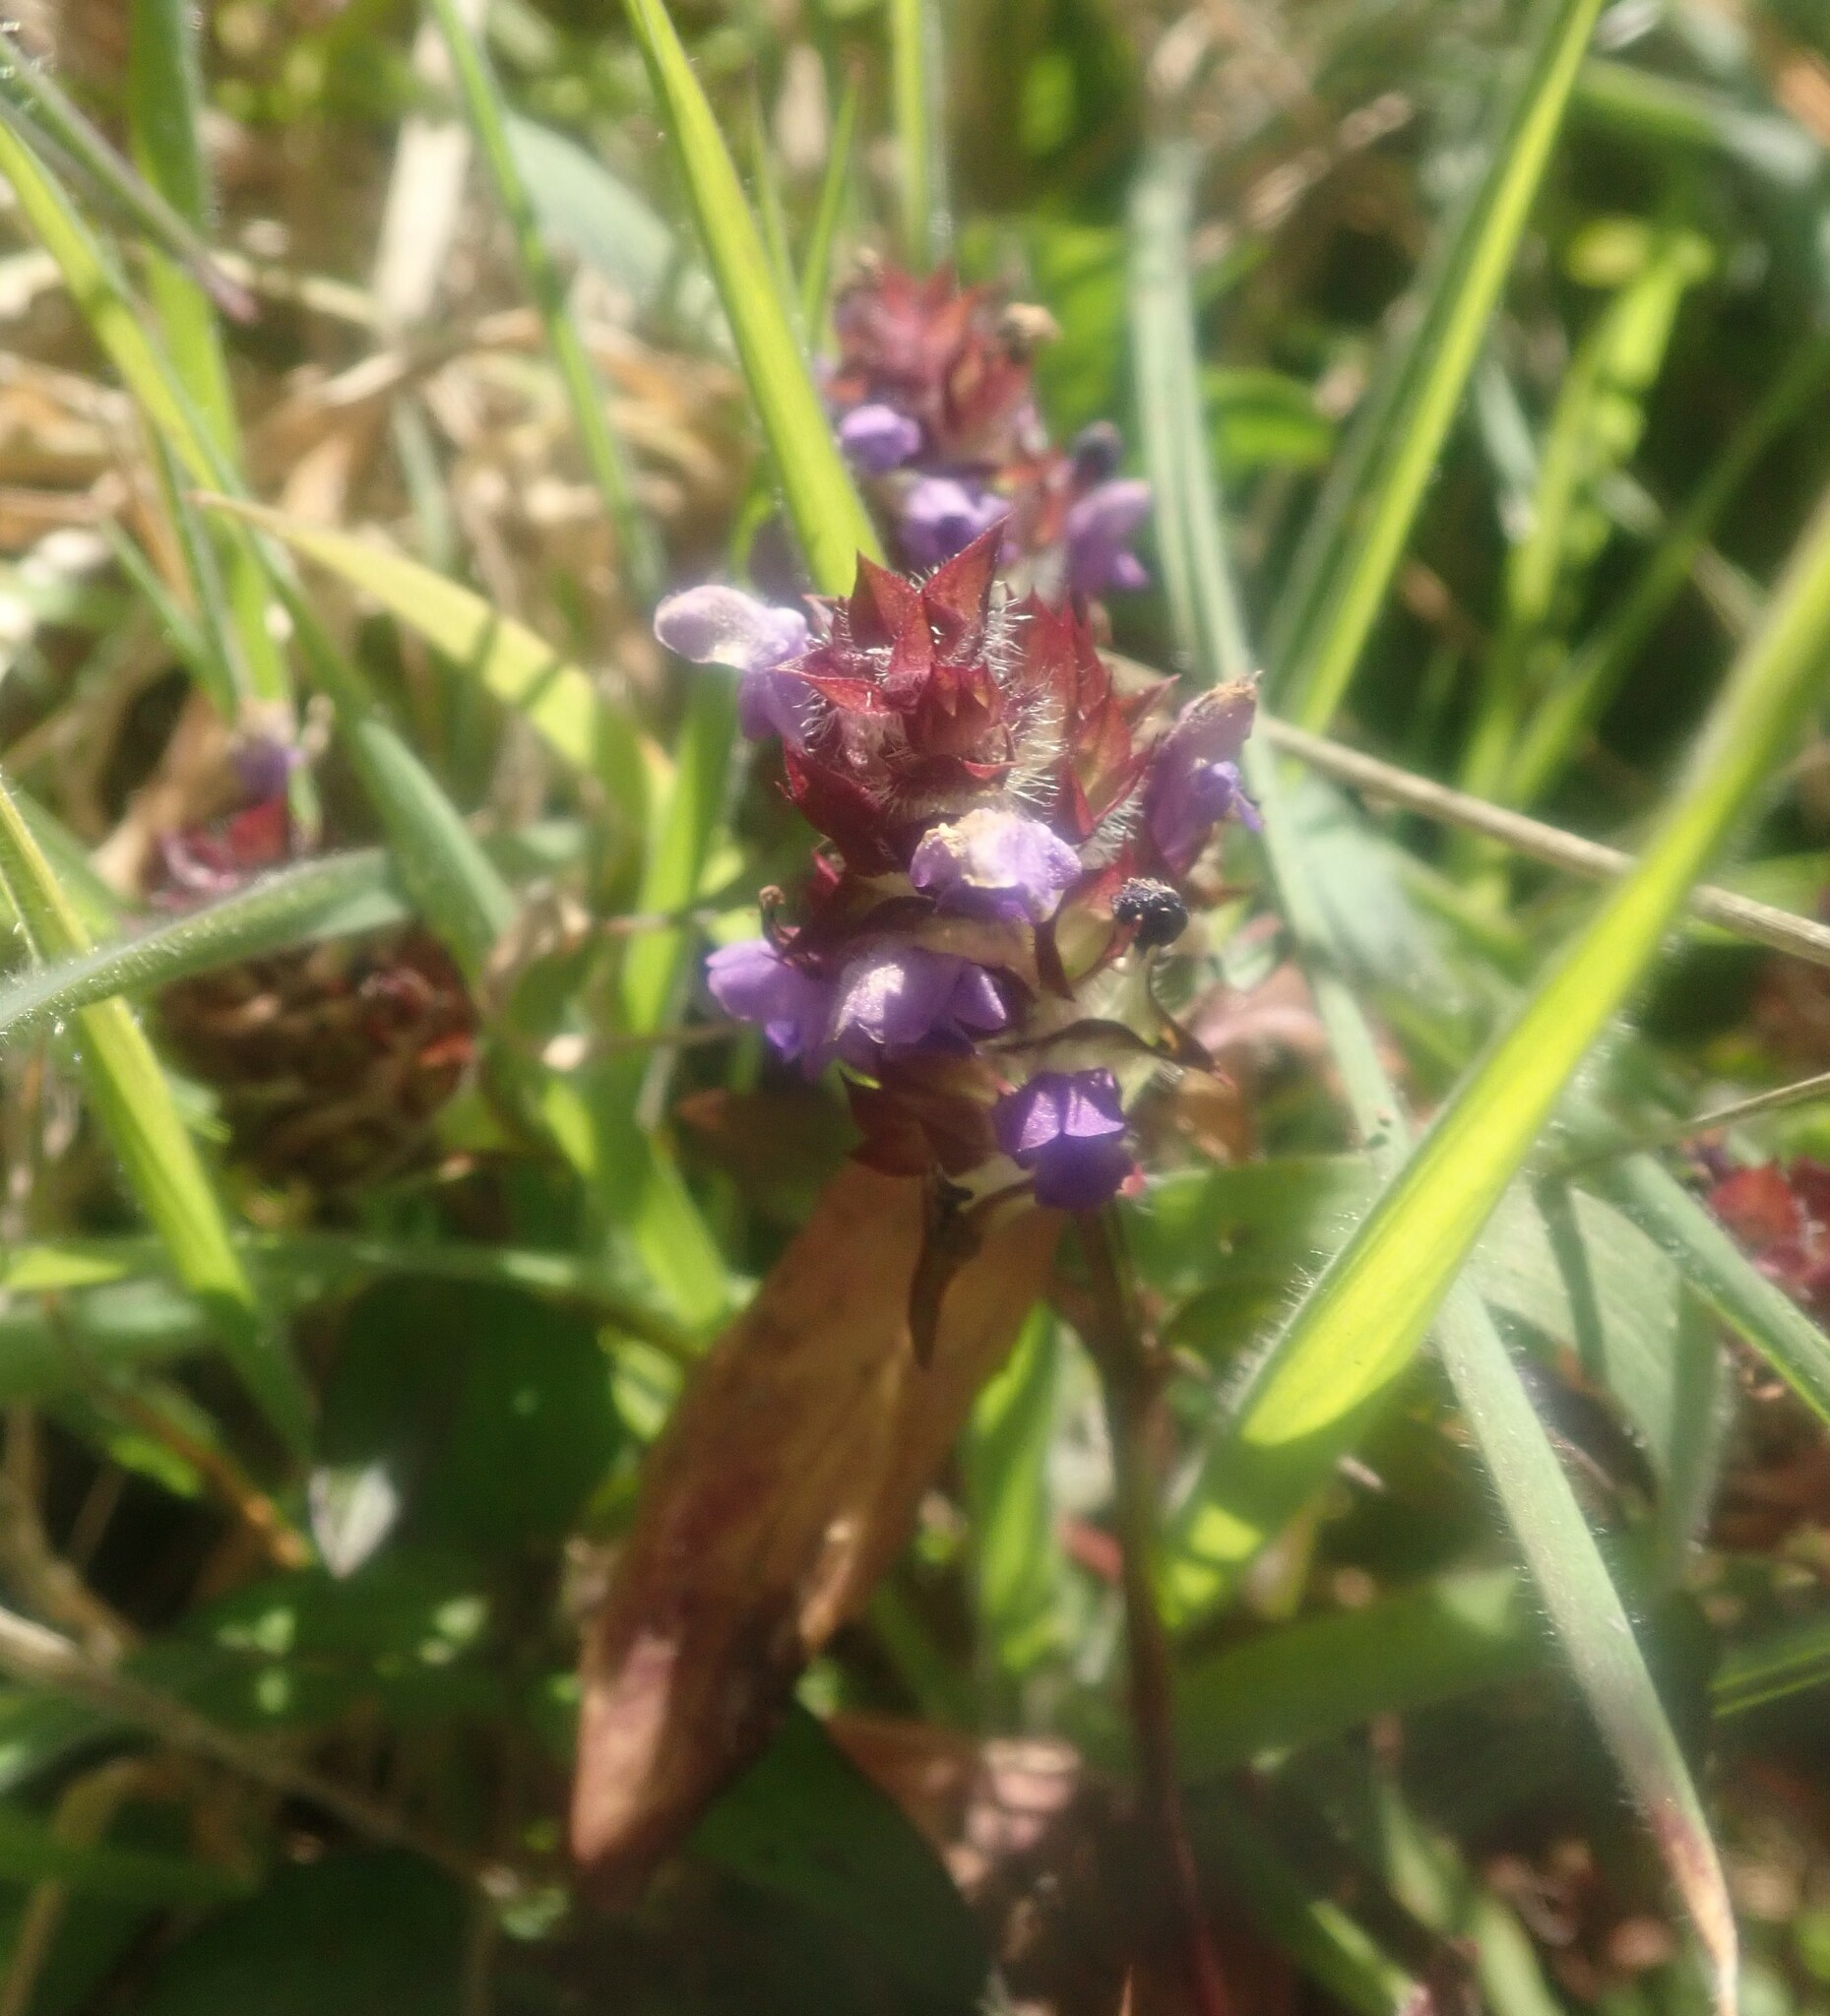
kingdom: Plantae
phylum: Tracheophyta
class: Magnoliopsida
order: Lamiales
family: Lamiaceae
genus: Prunella
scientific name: Prunella vulgaris
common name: Heal-all
